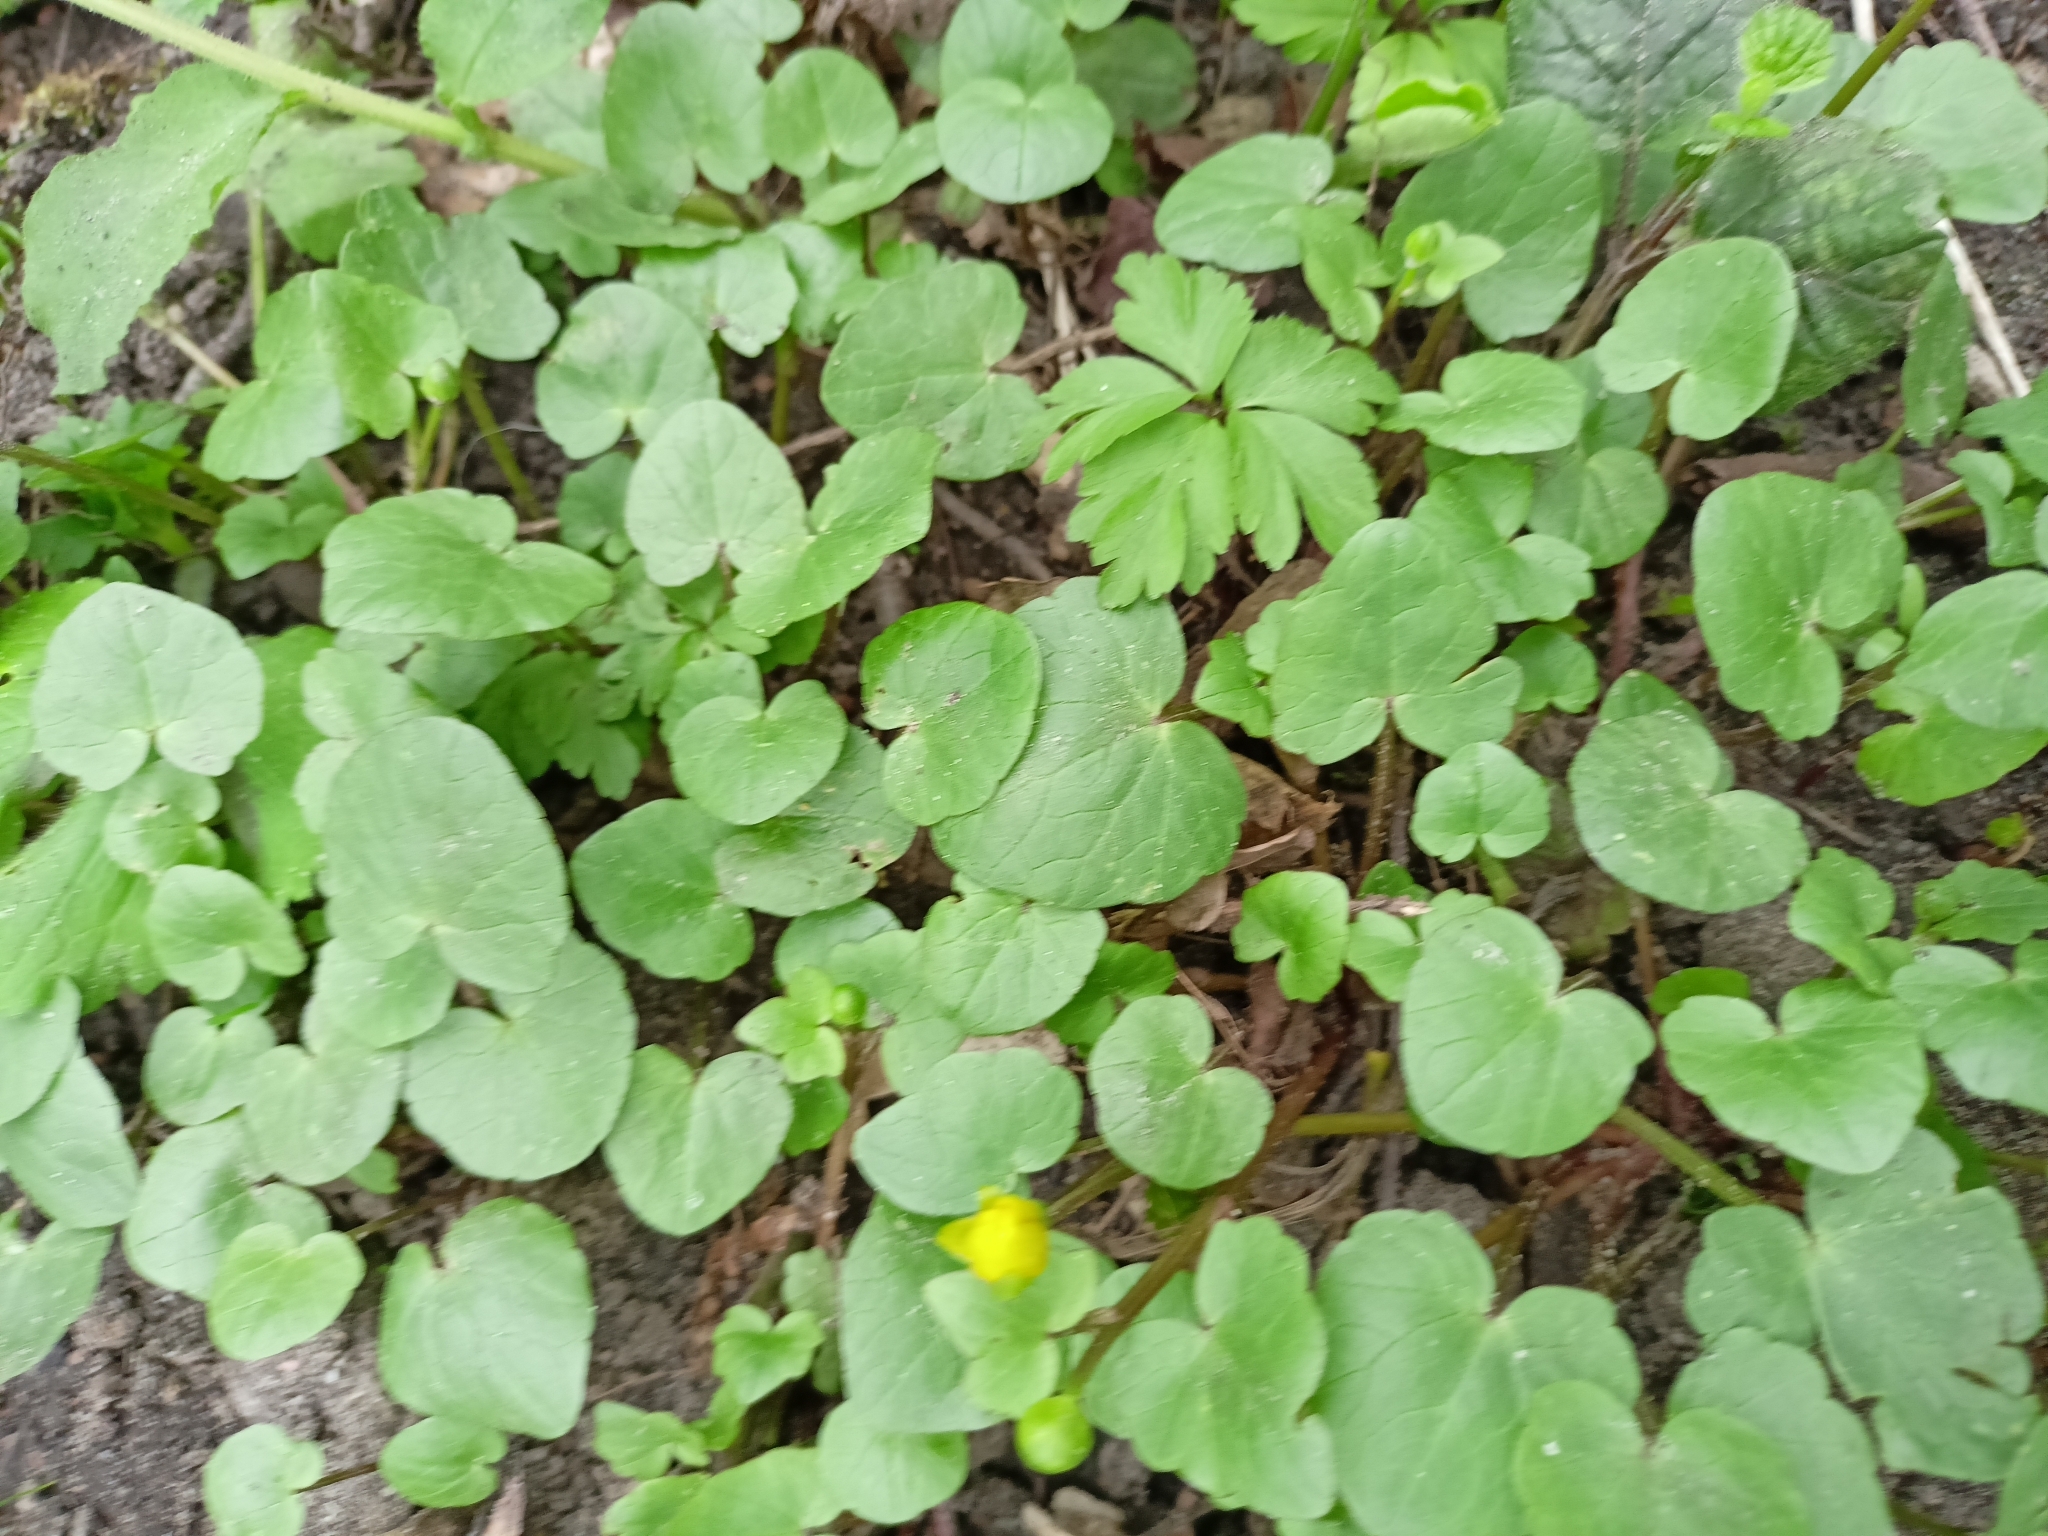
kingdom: Plantae
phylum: Tracheophyta
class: Magnoliopsida
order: Ranunculales
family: Ranunculaceae
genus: Ficaria
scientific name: Ficaria verna
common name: Lesser celandine
